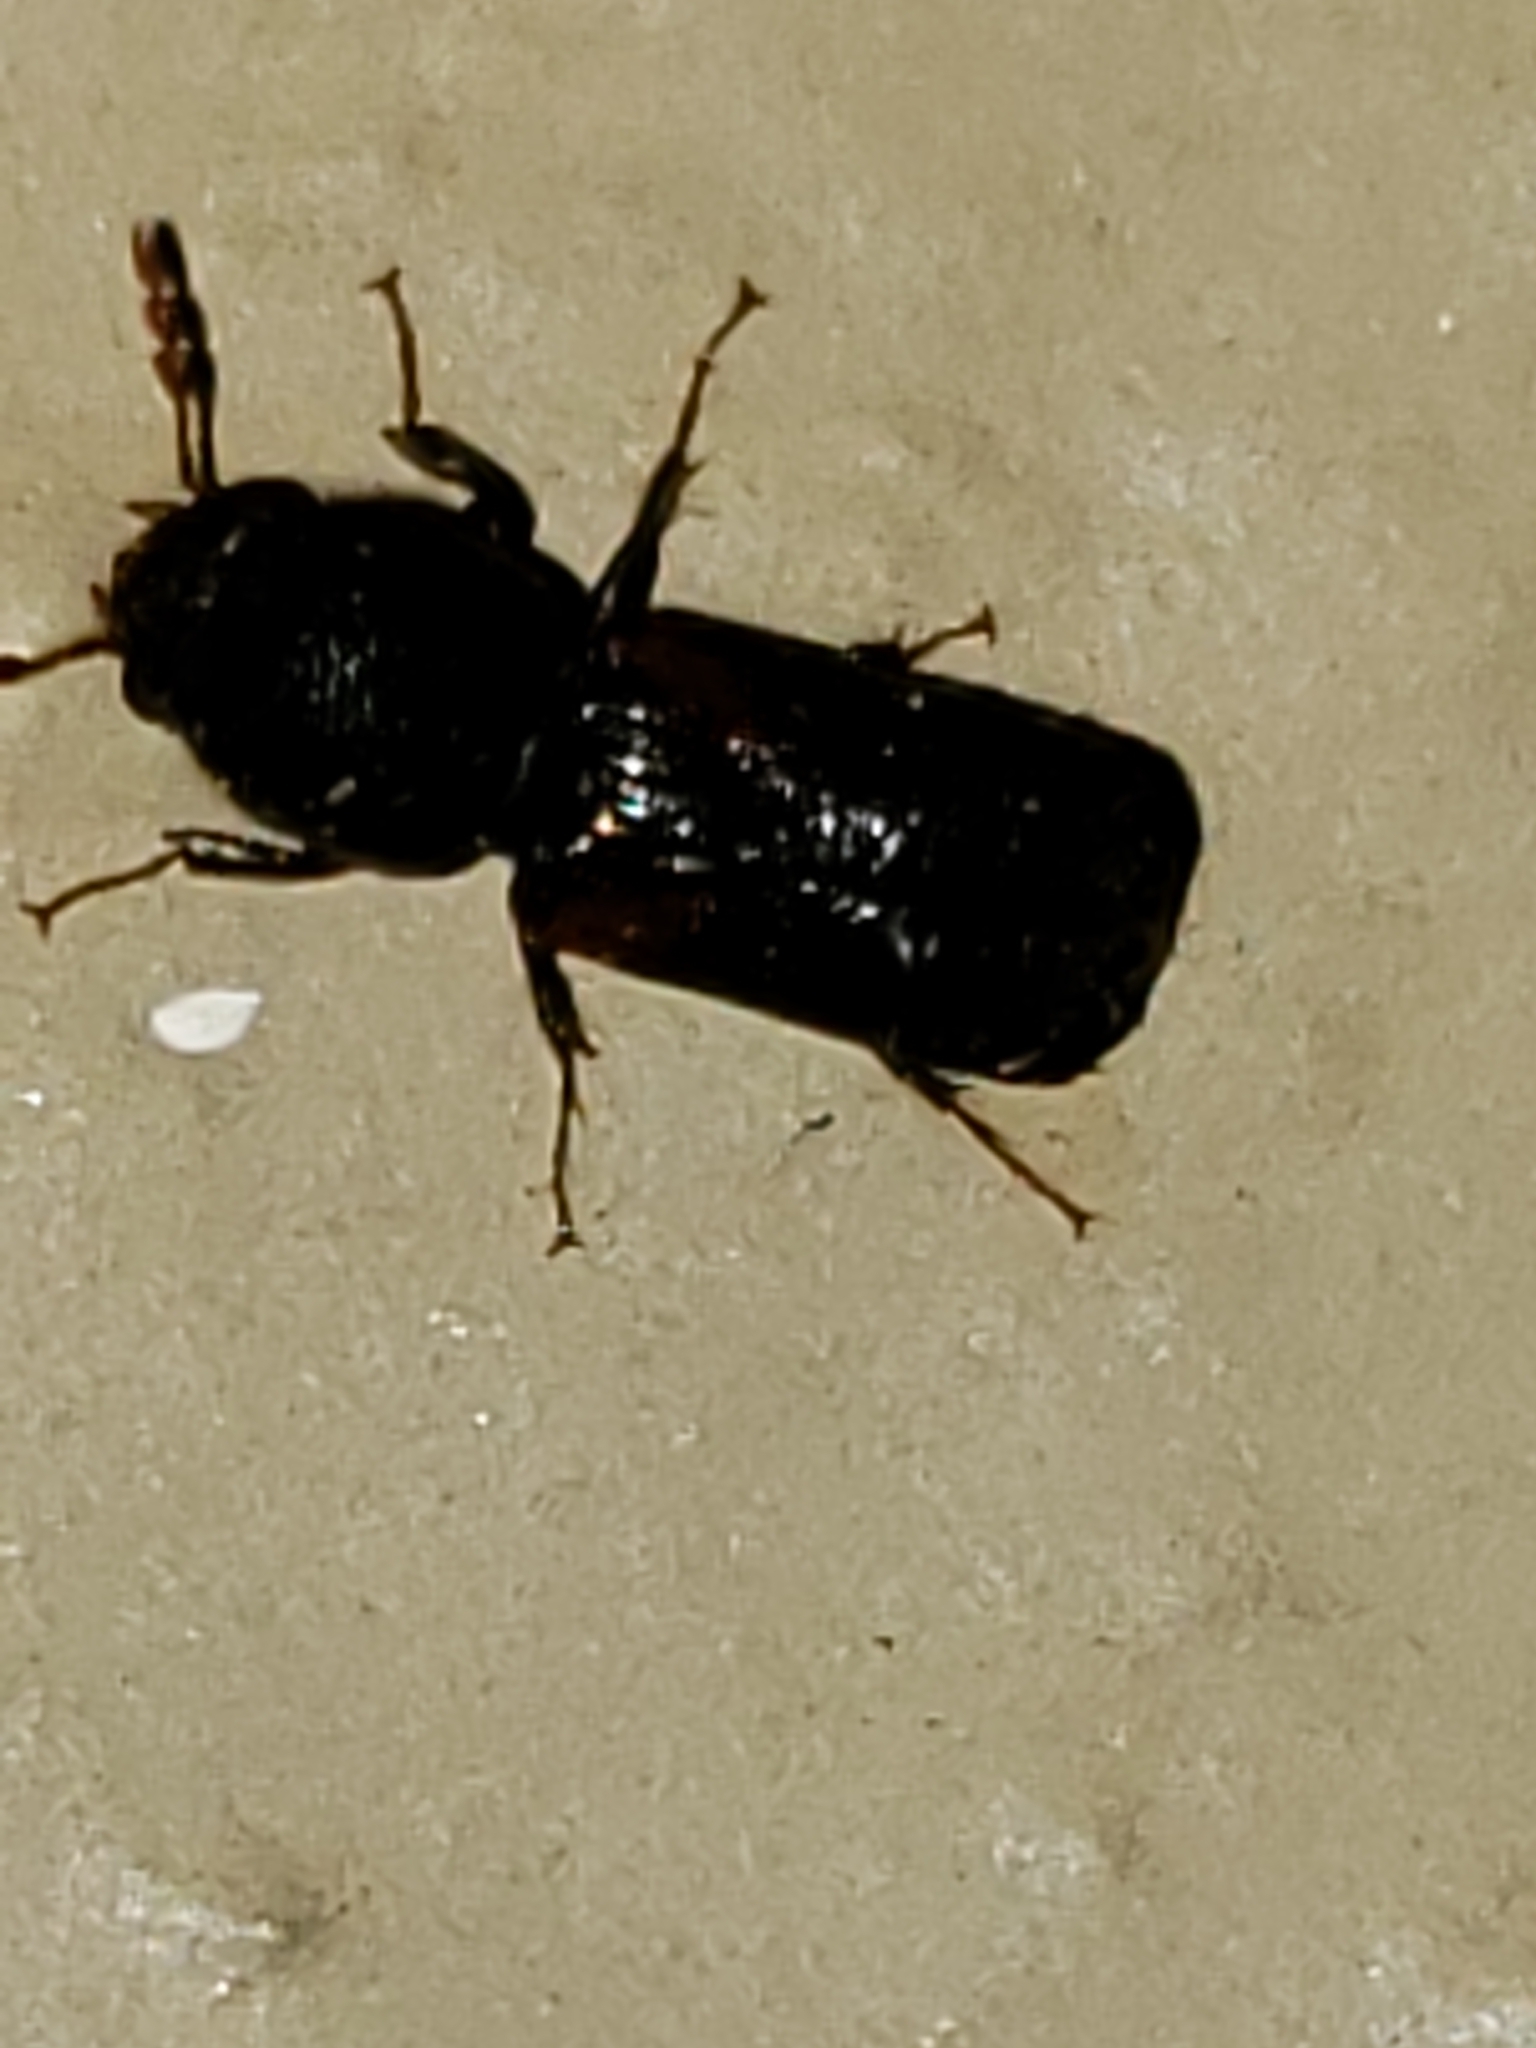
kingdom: Animalia
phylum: Arthropoda
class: Insecta
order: Coleoptera
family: Bostrichidae
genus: Xylobiops
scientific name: Xylobiops basilaris
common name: Red-shouldered bostrichid
